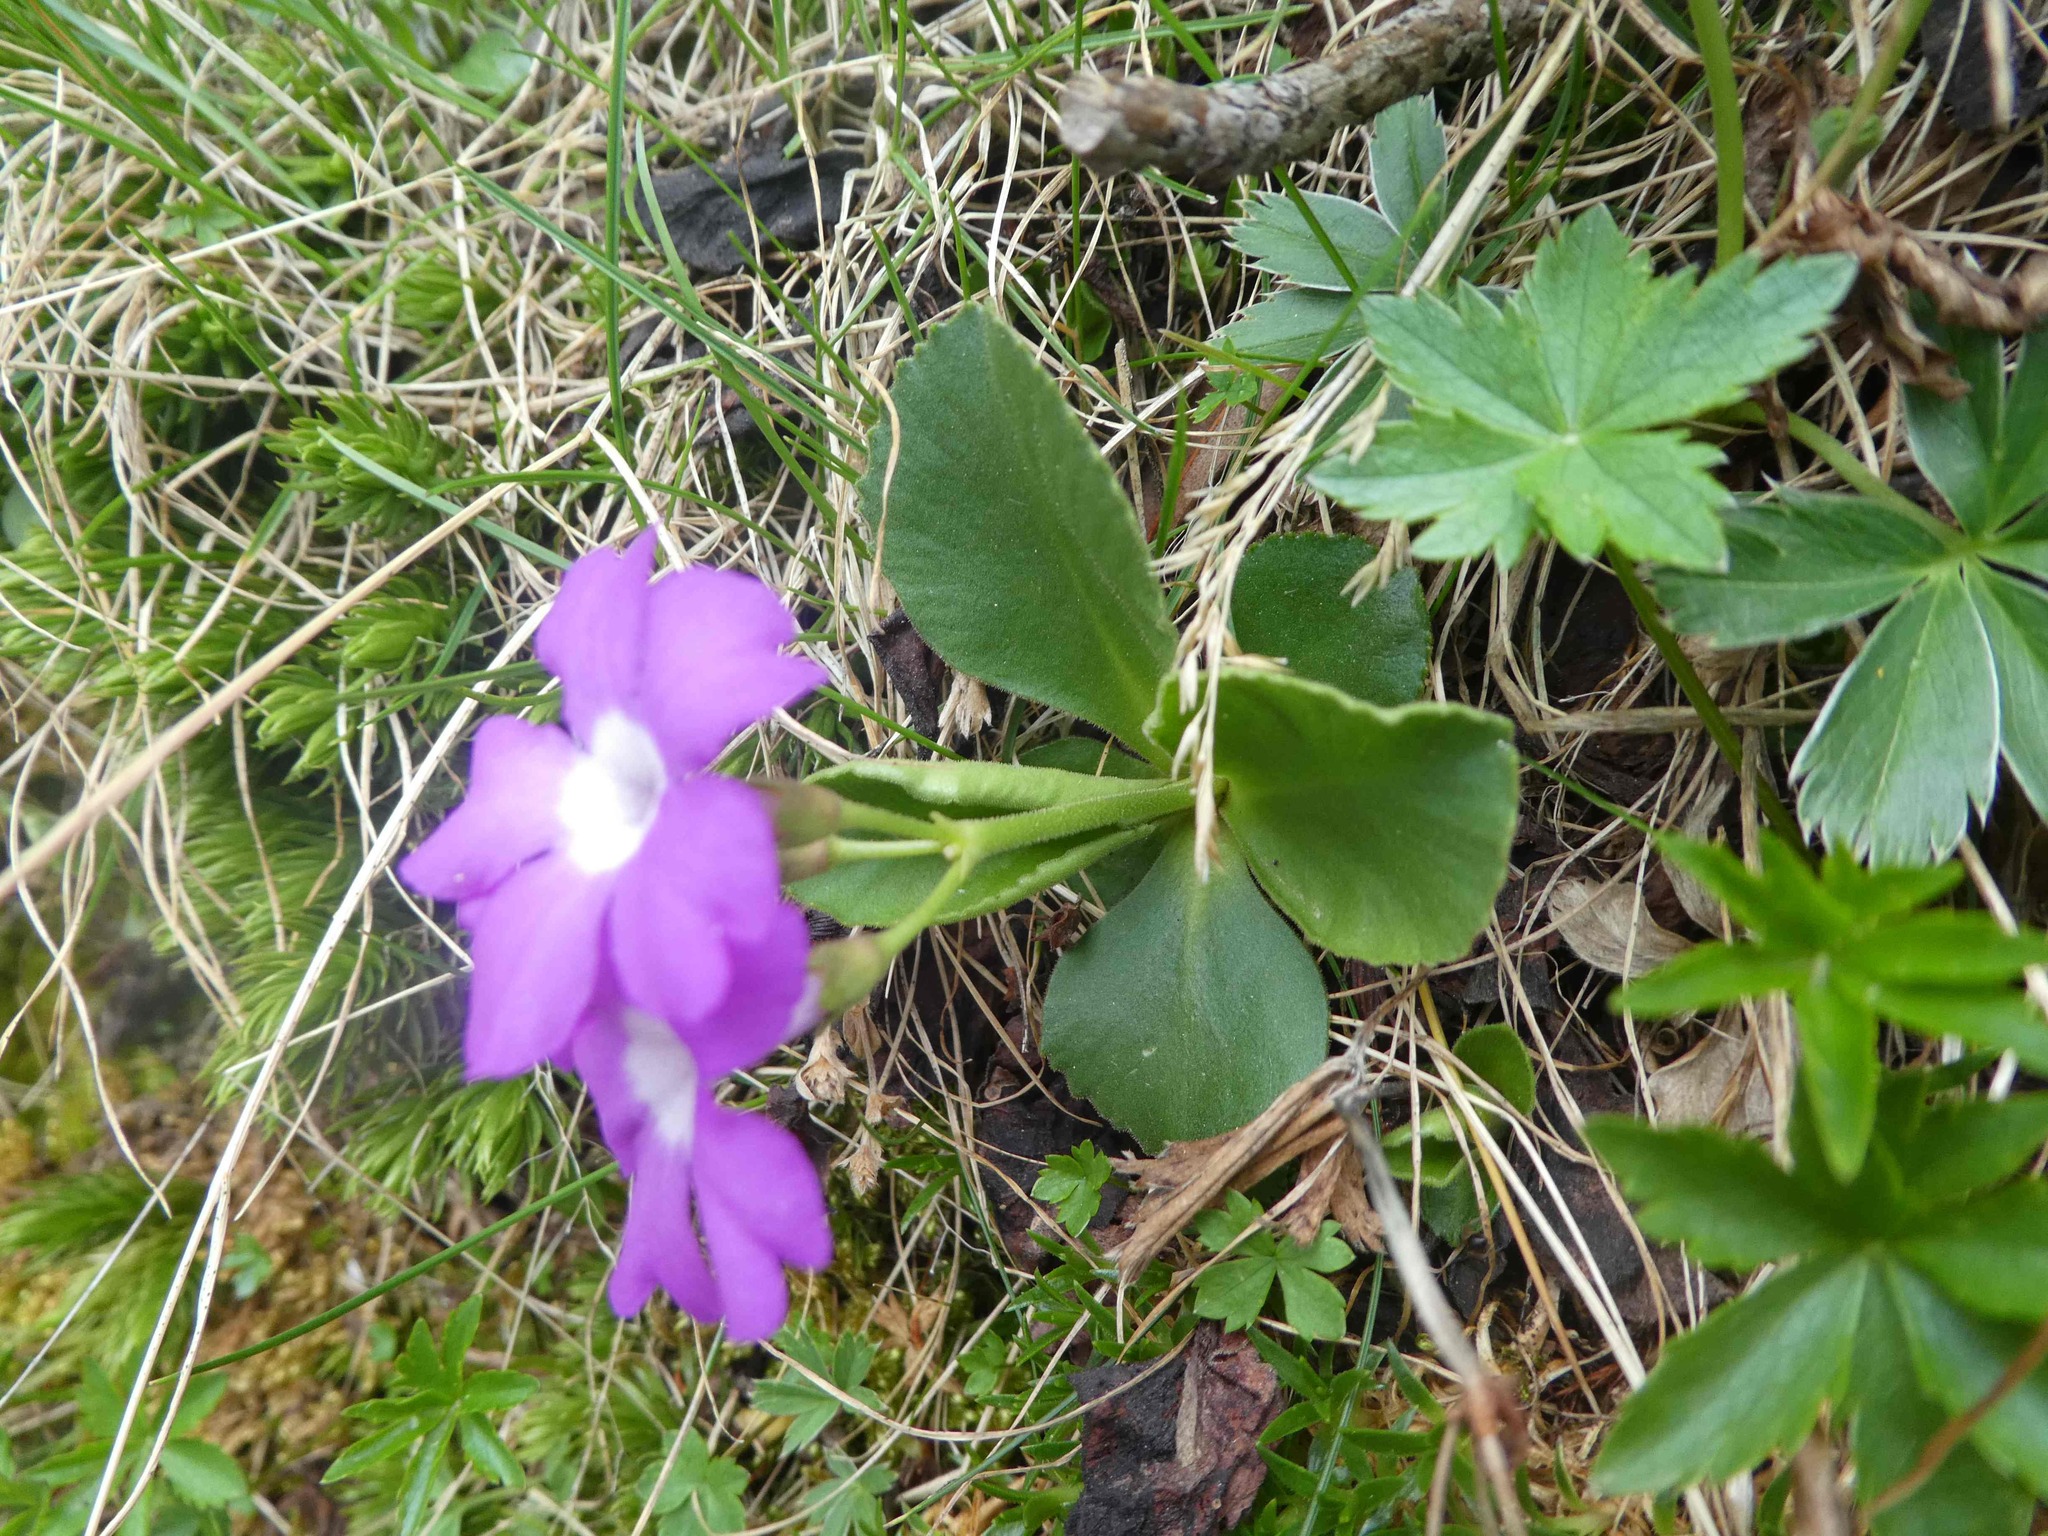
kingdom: Plantae
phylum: Tracheophyta
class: Magnoliopsida
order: Ericales
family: Primulaceae
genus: Primula
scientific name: Primula hirsuta
